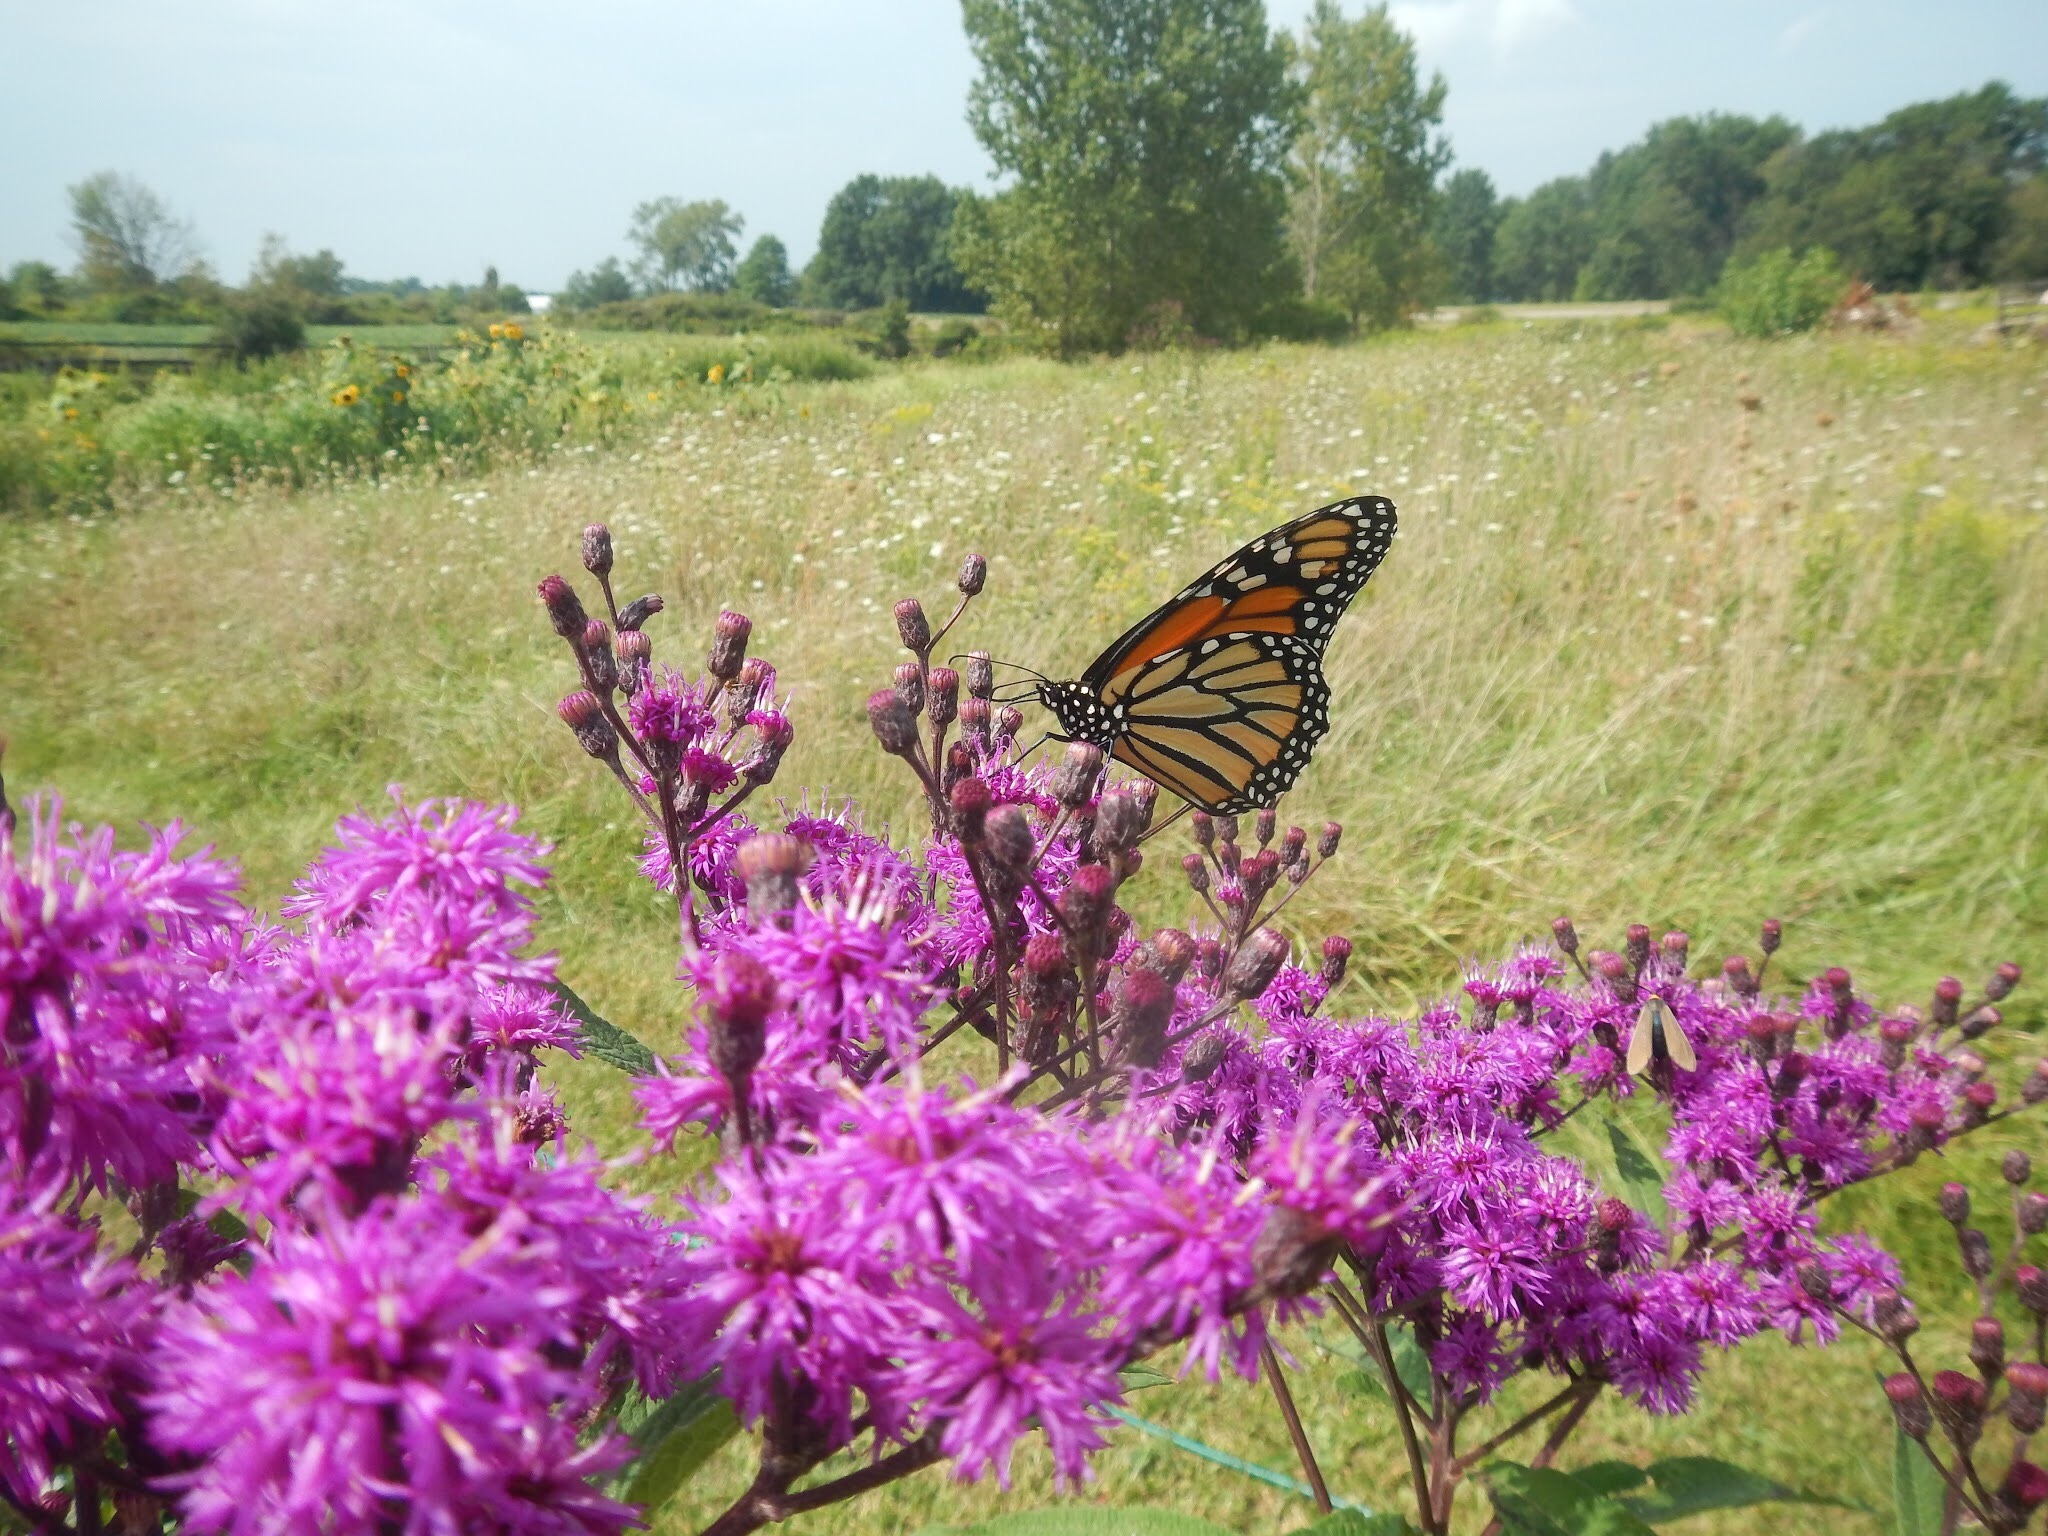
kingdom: Animalia
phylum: Arthropoda
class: Insecta
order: Lepidoptera
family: Nymphalidae
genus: Danaus
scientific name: Danaus plexippus
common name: Monarch
